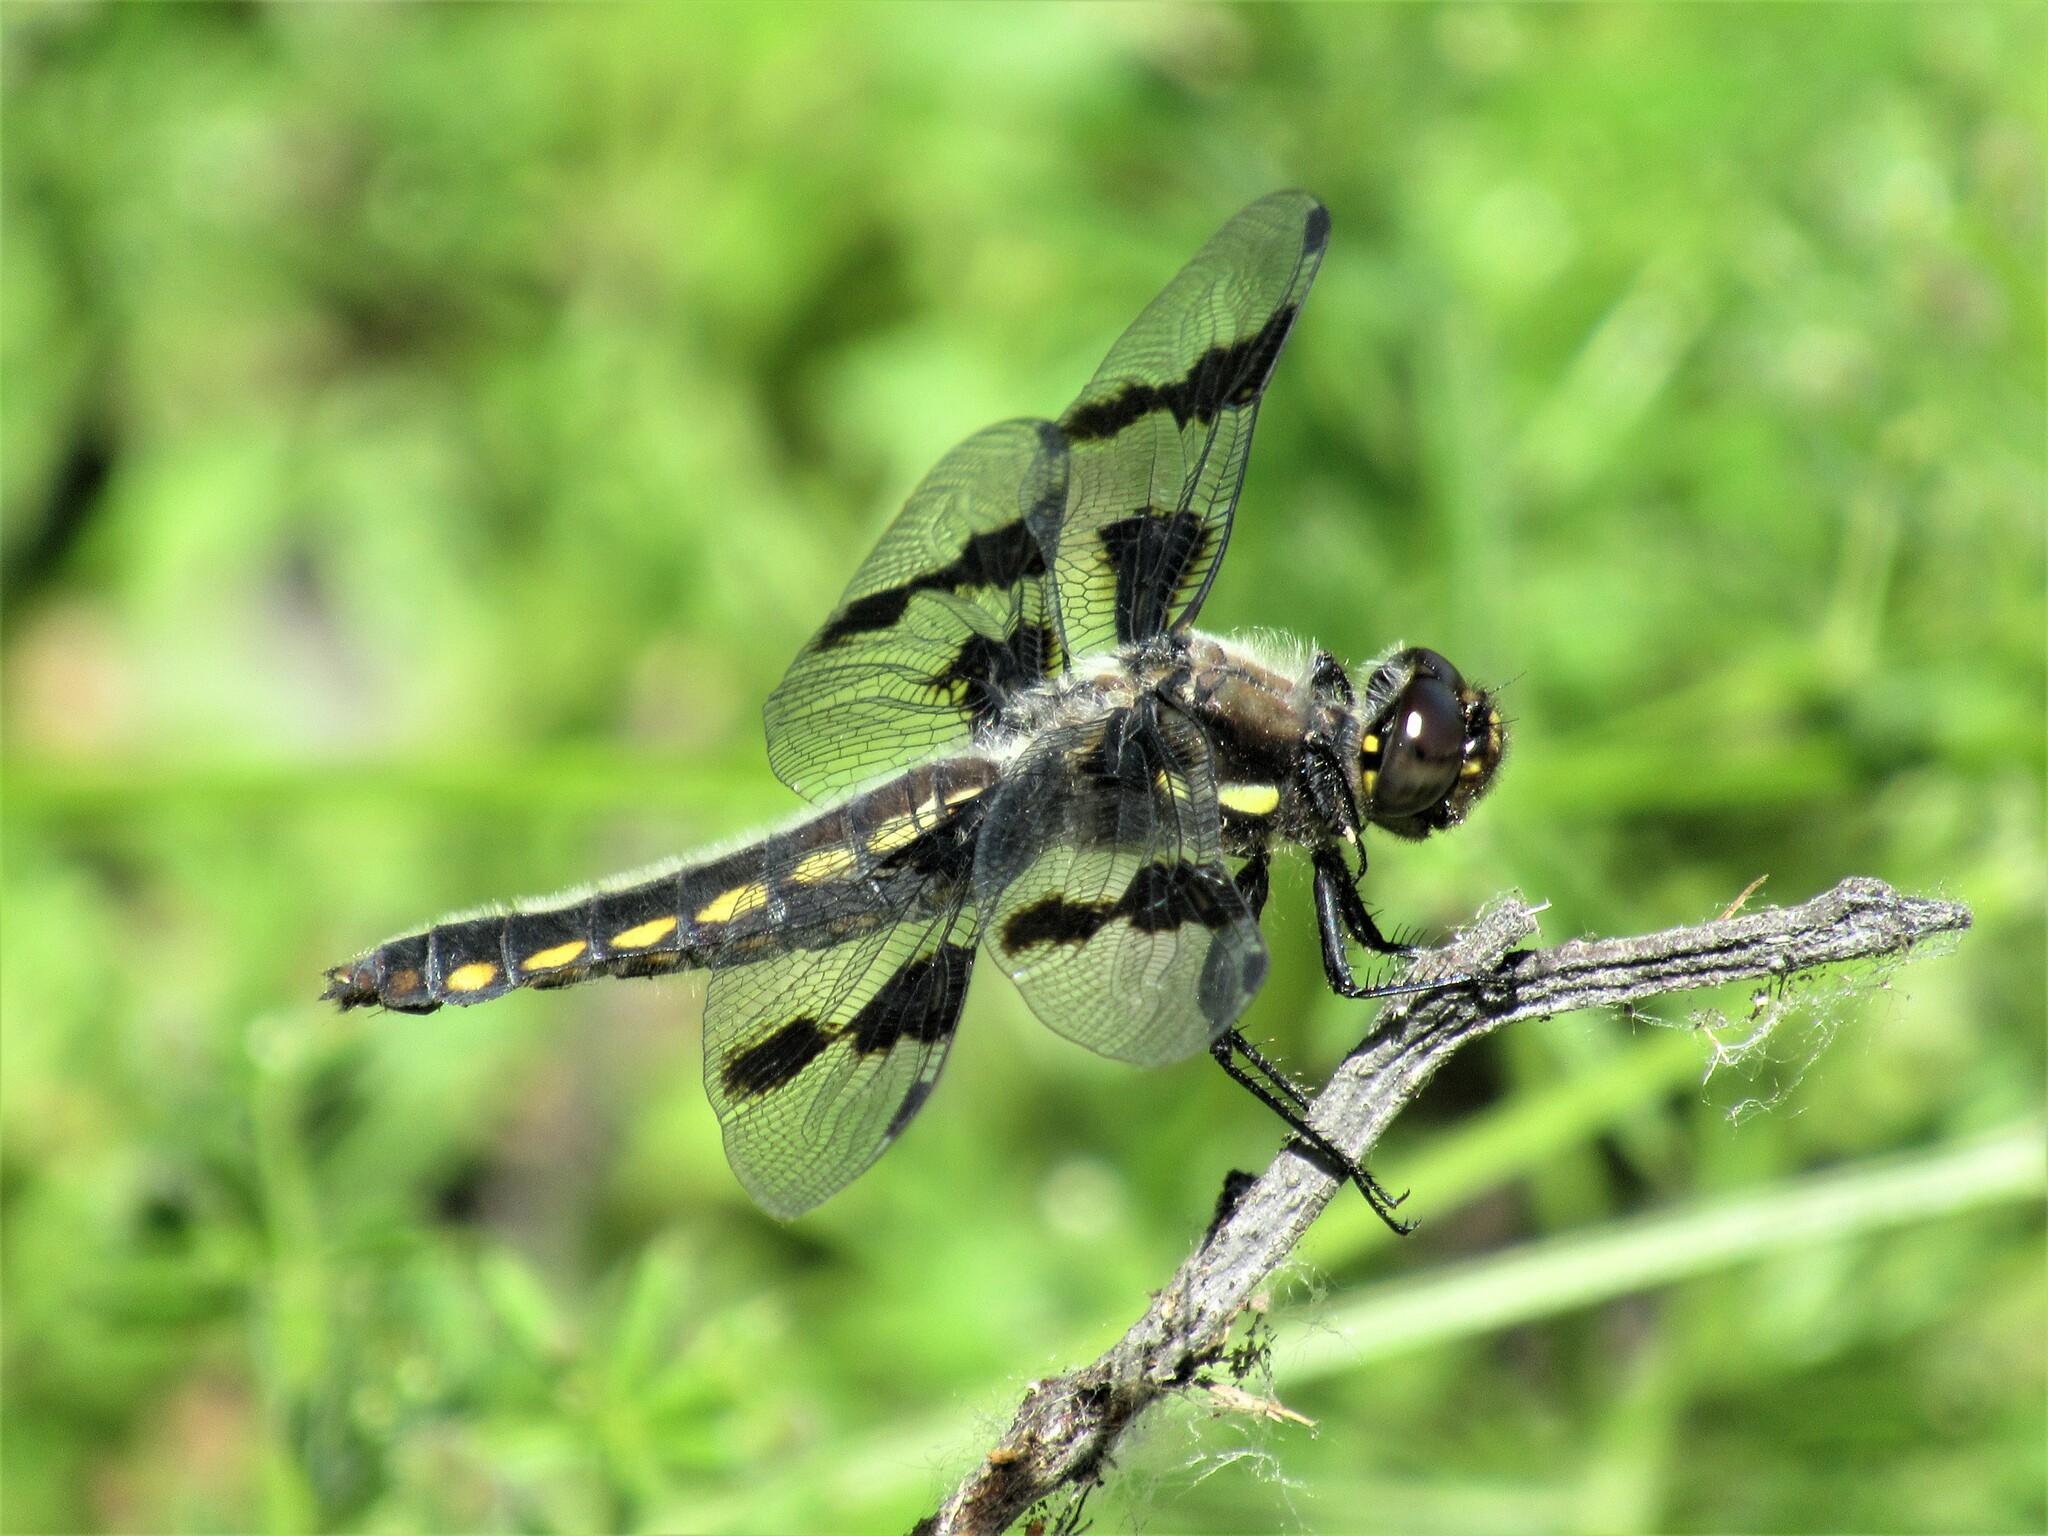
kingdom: Animalia
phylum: Arthropoda
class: Insecta
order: Odonata
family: Libellulidae
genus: Libellula
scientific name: Libellula forensis
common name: Eight-spotted skimmer
